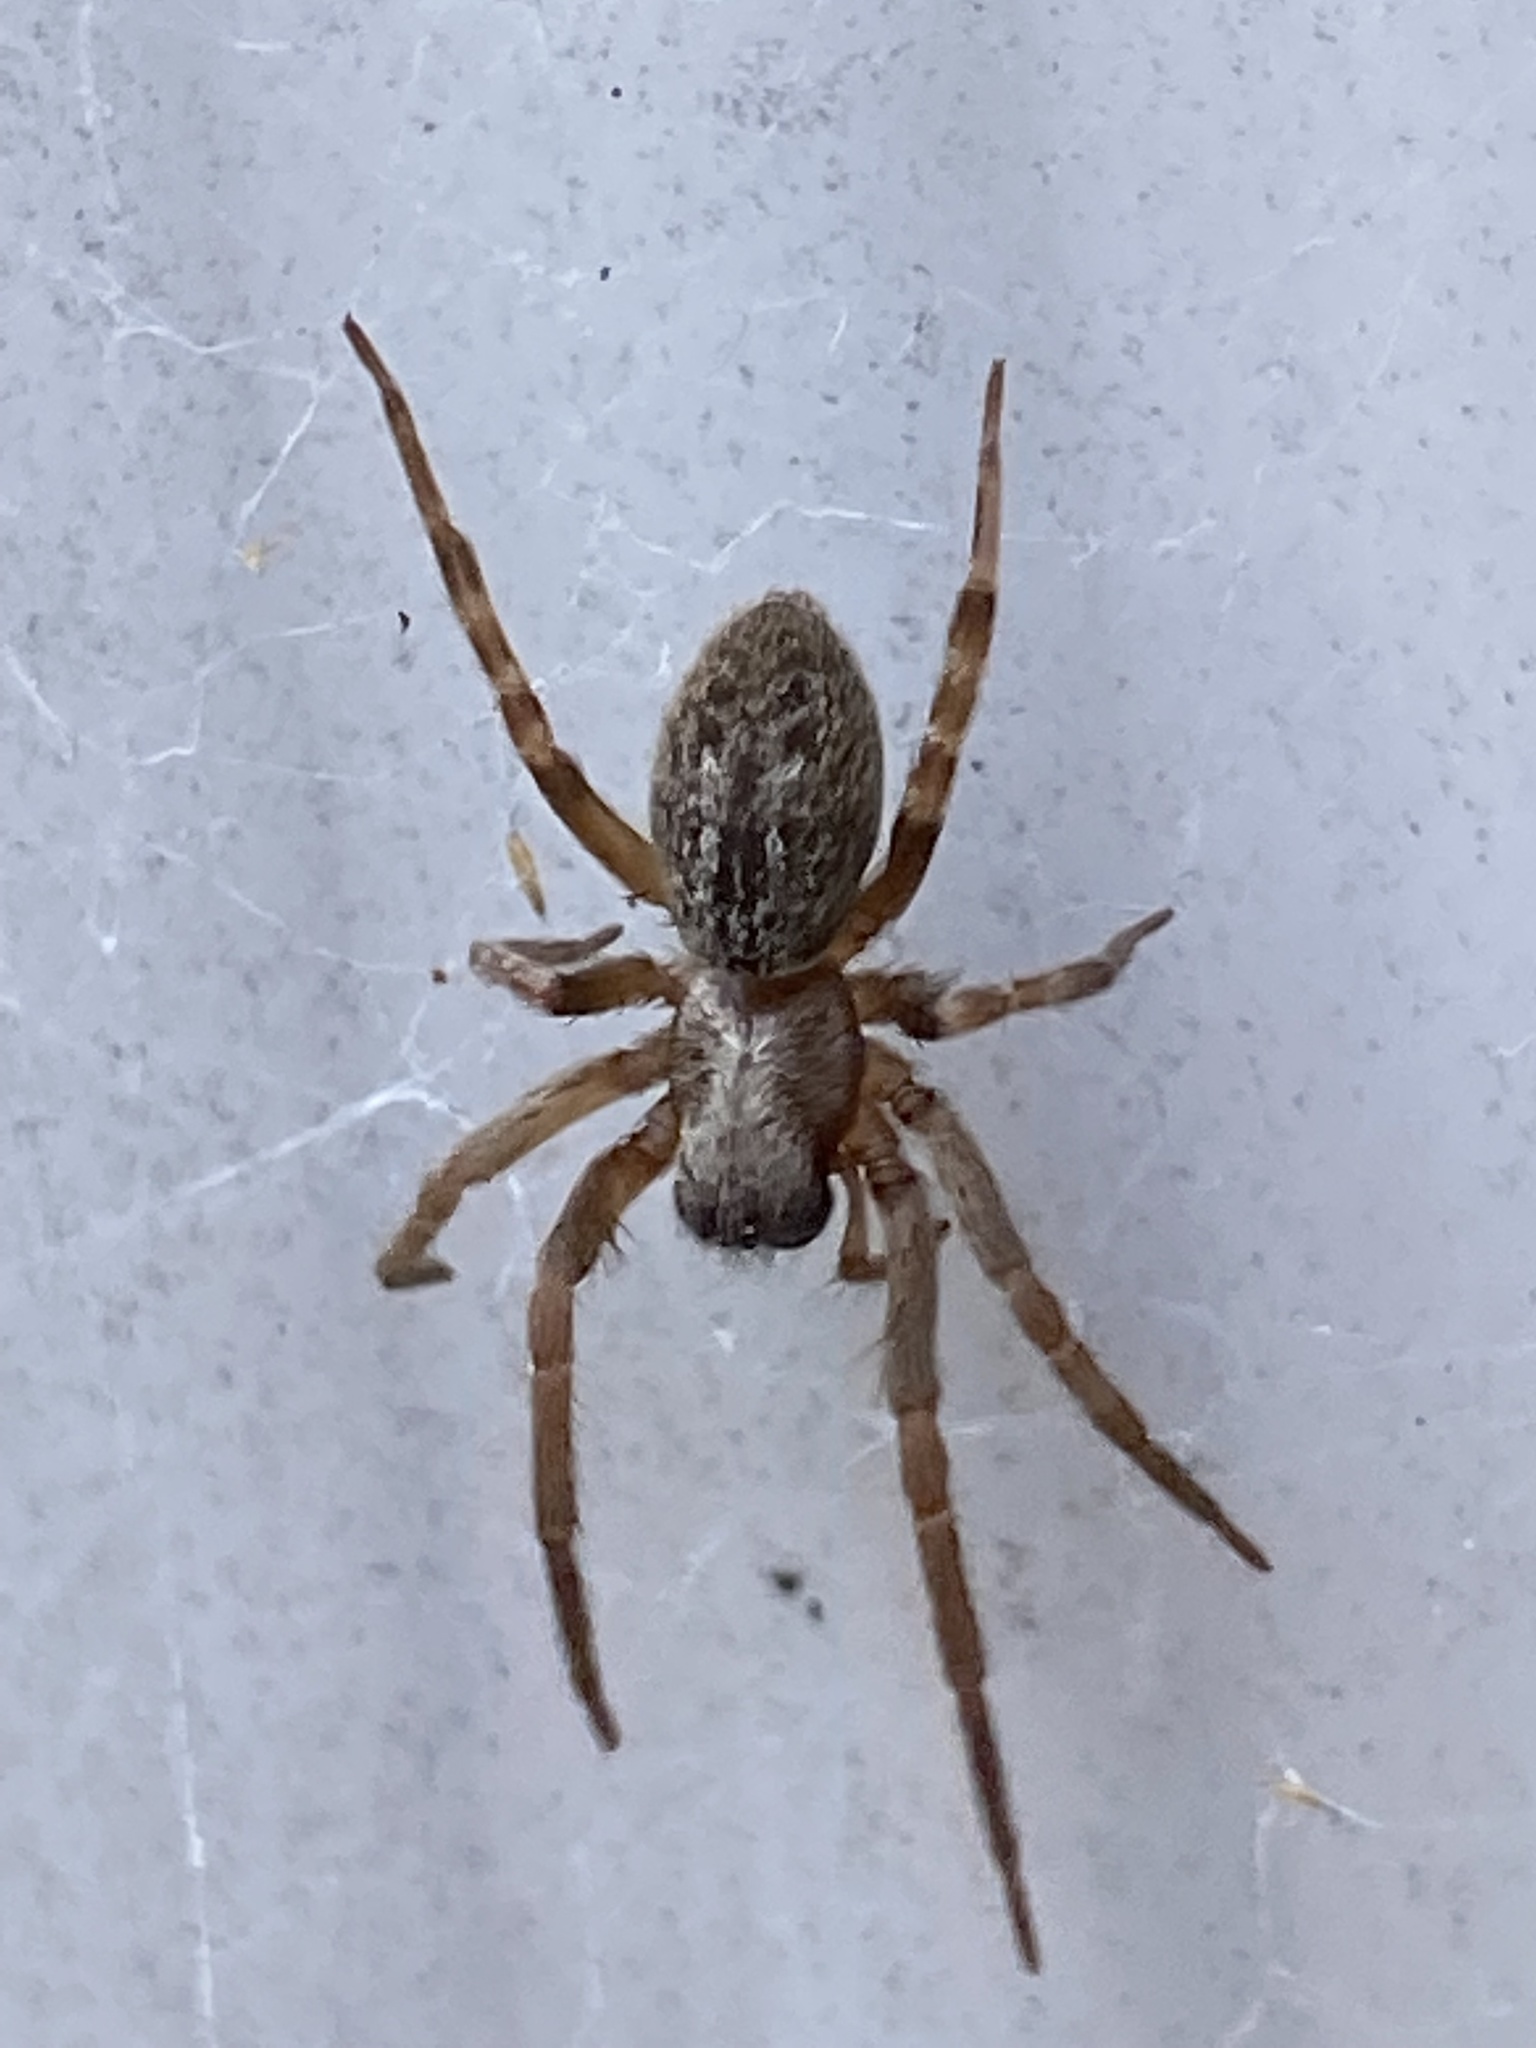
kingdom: Animalia
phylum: Arthropoda
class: Arachnida
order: Araneae
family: Desidae
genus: Badumna
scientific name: Badumna longinqua
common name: Gray house spider
